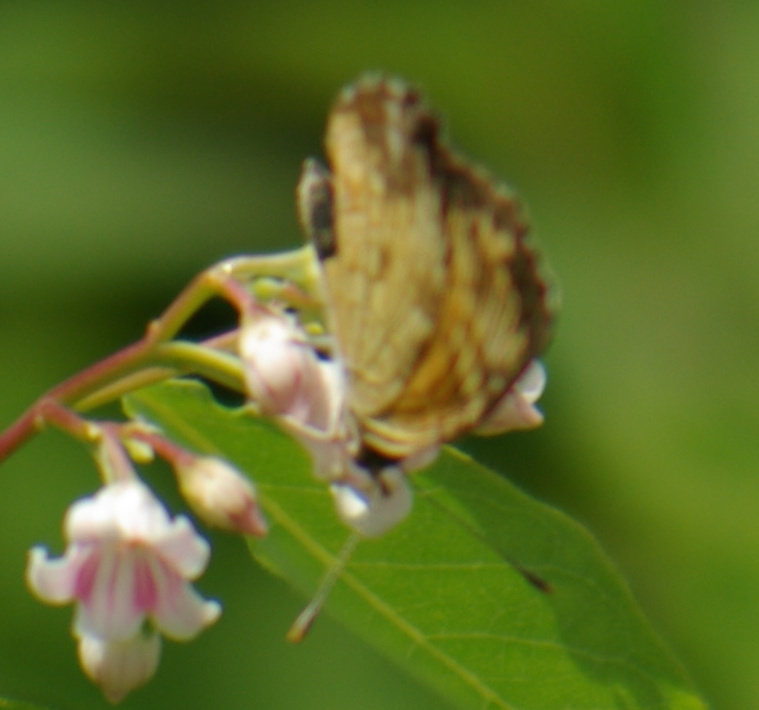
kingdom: Animalia
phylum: Arthropoda
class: Insecta
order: Lepidoptera
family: Nymphalidae
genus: Phyciodes
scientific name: Phyciodes tharos
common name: Pearl crescent
